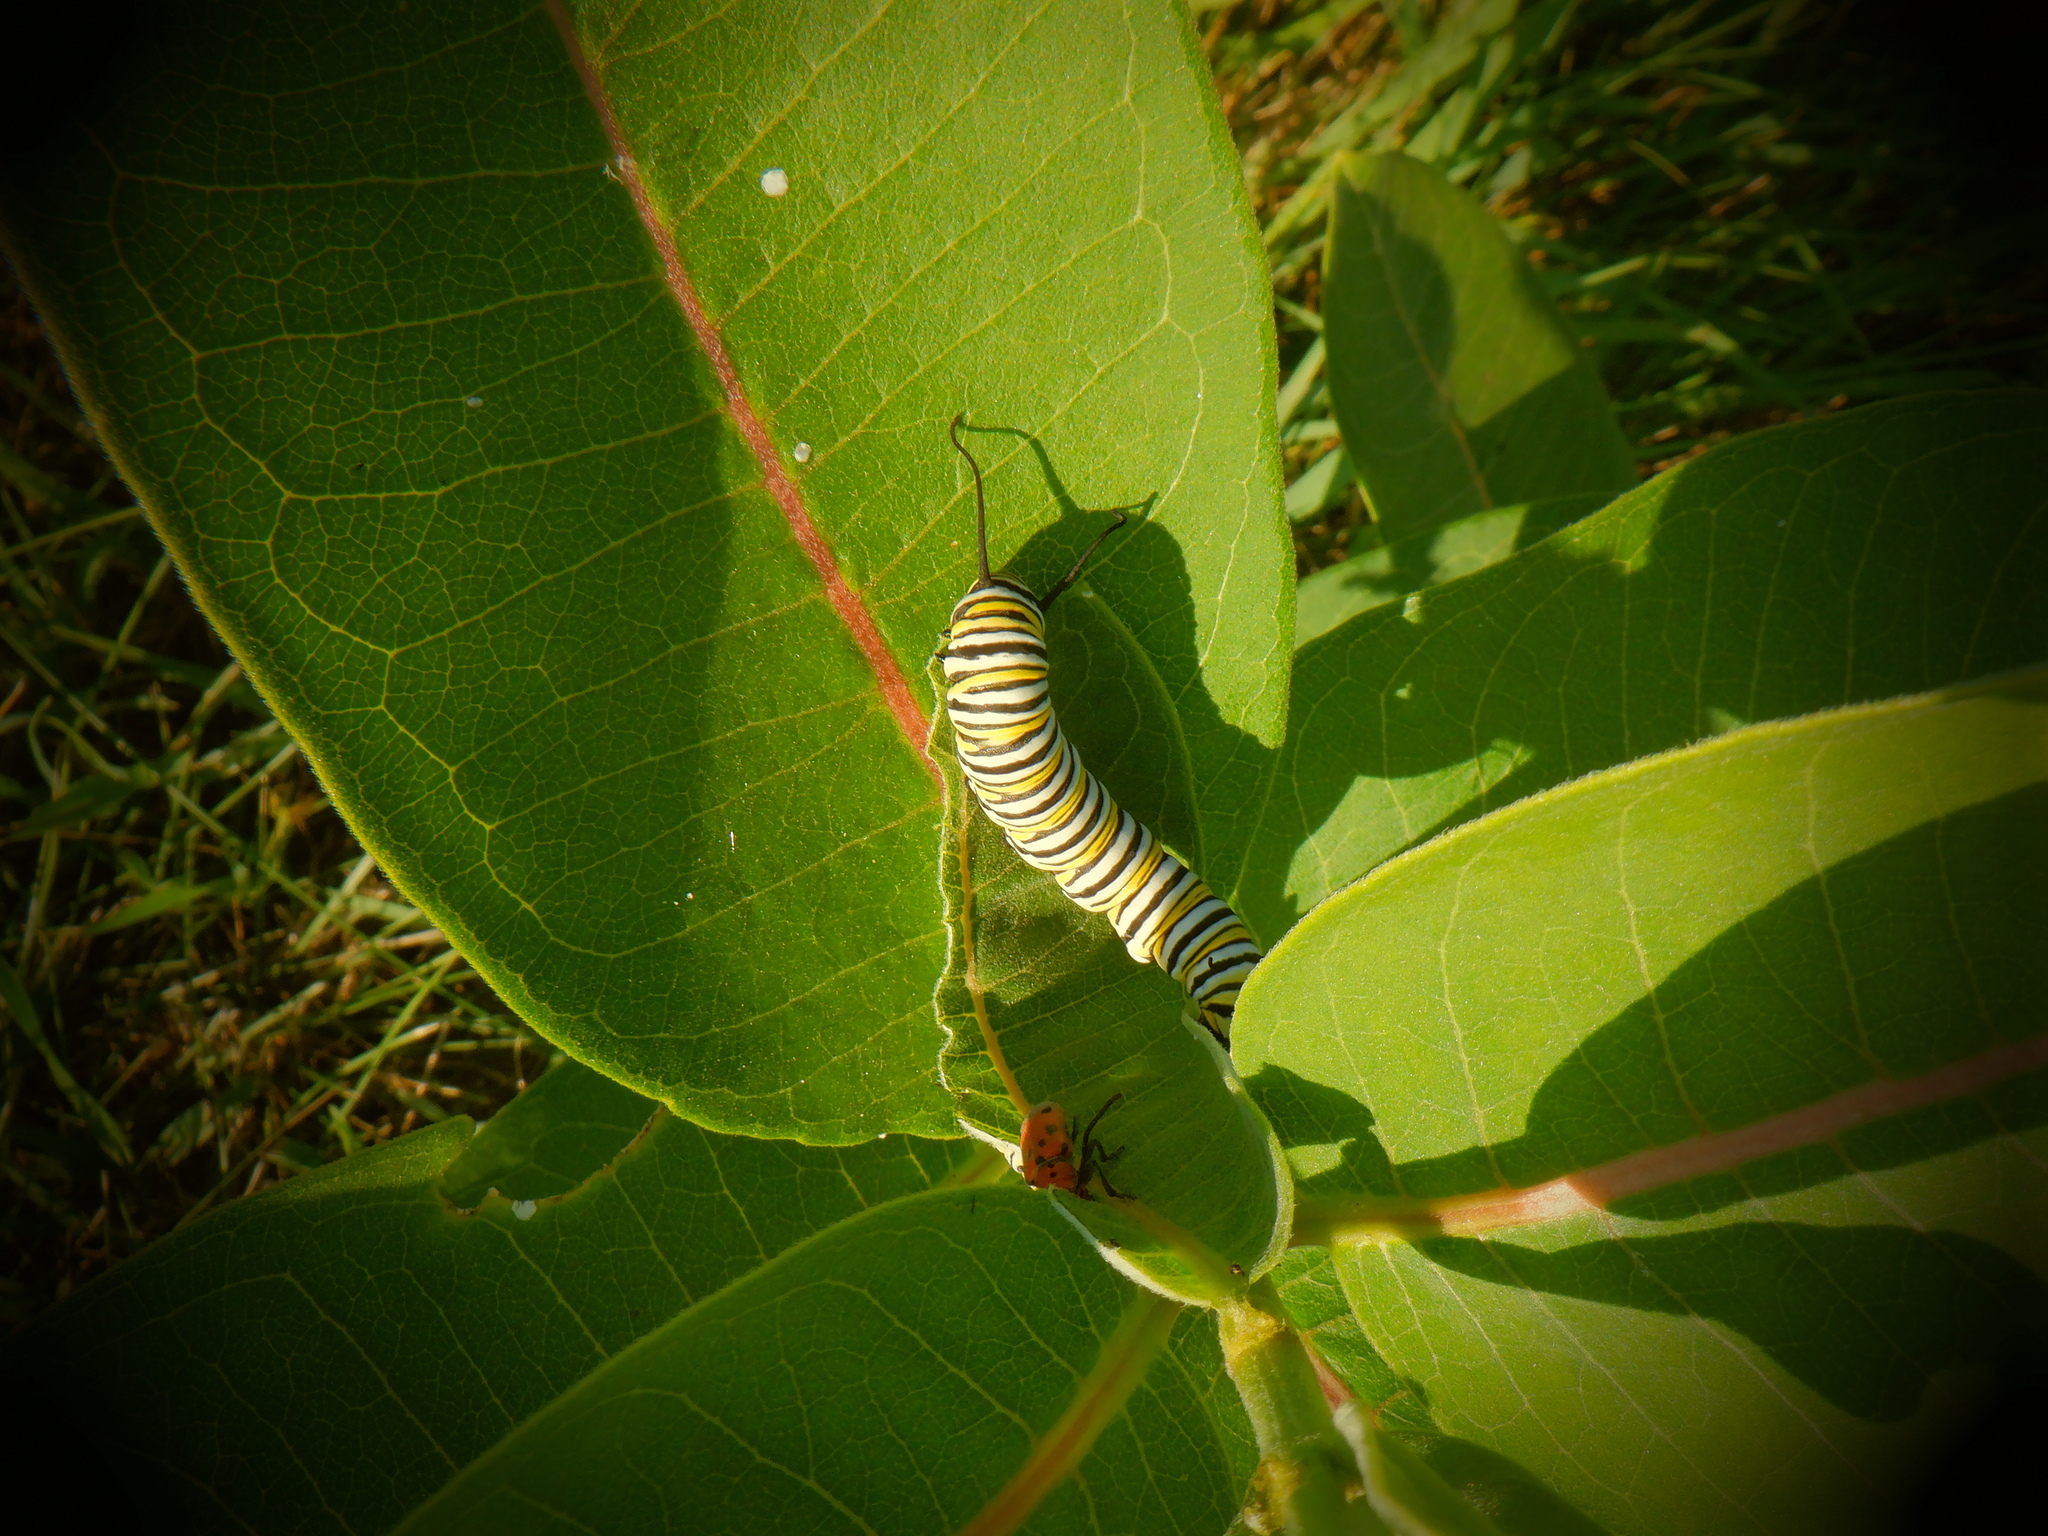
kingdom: Animalia
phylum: Arthropoda
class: Insecta
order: Lepidoptera
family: Nymphalidae
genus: Danaus
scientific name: Danaus plexippus
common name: Monarch
